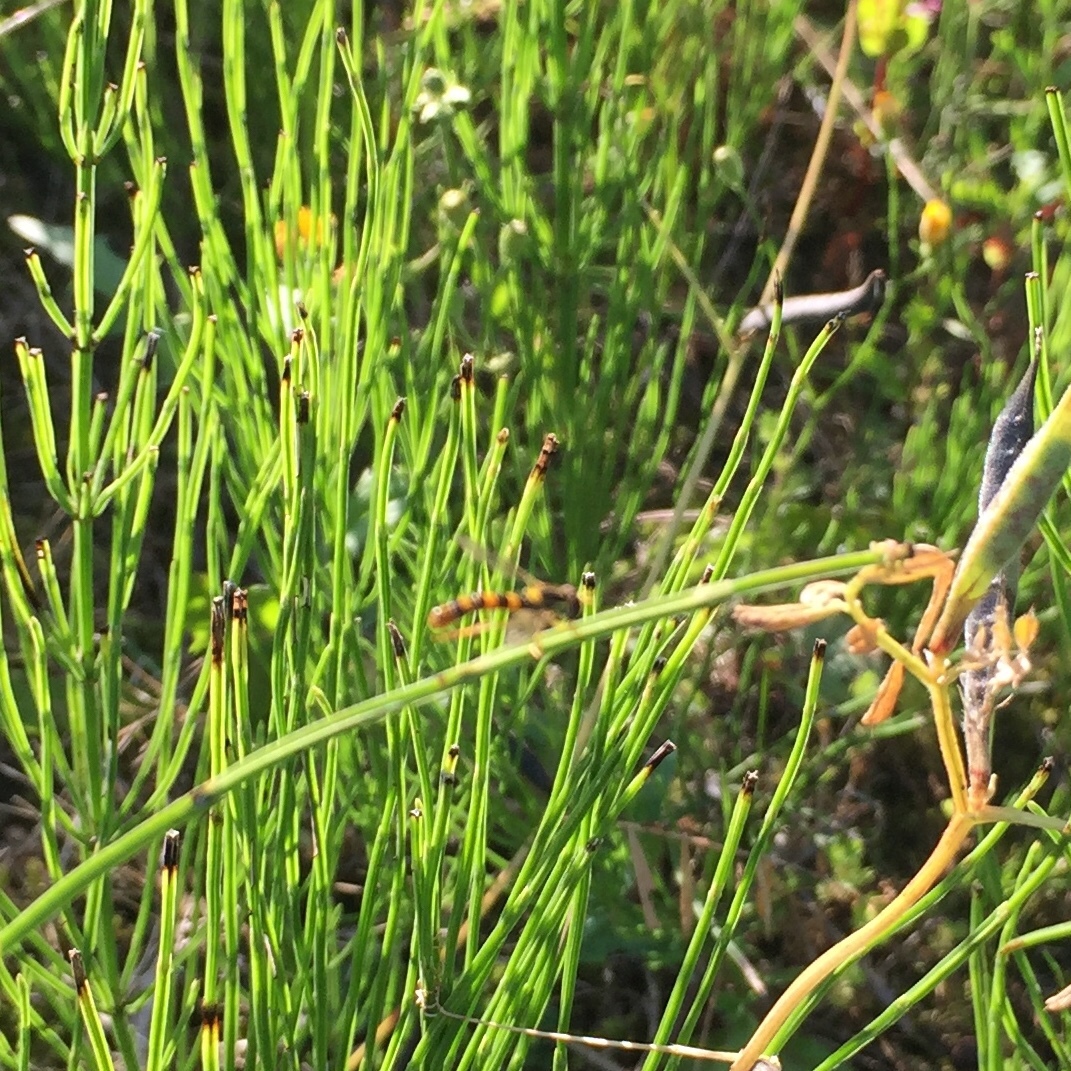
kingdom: Animalia
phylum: Arthropoda
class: Insecta
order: Diptera
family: Syrphidae
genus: Sphaerophoria
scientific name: Sphaerophoria scripta
